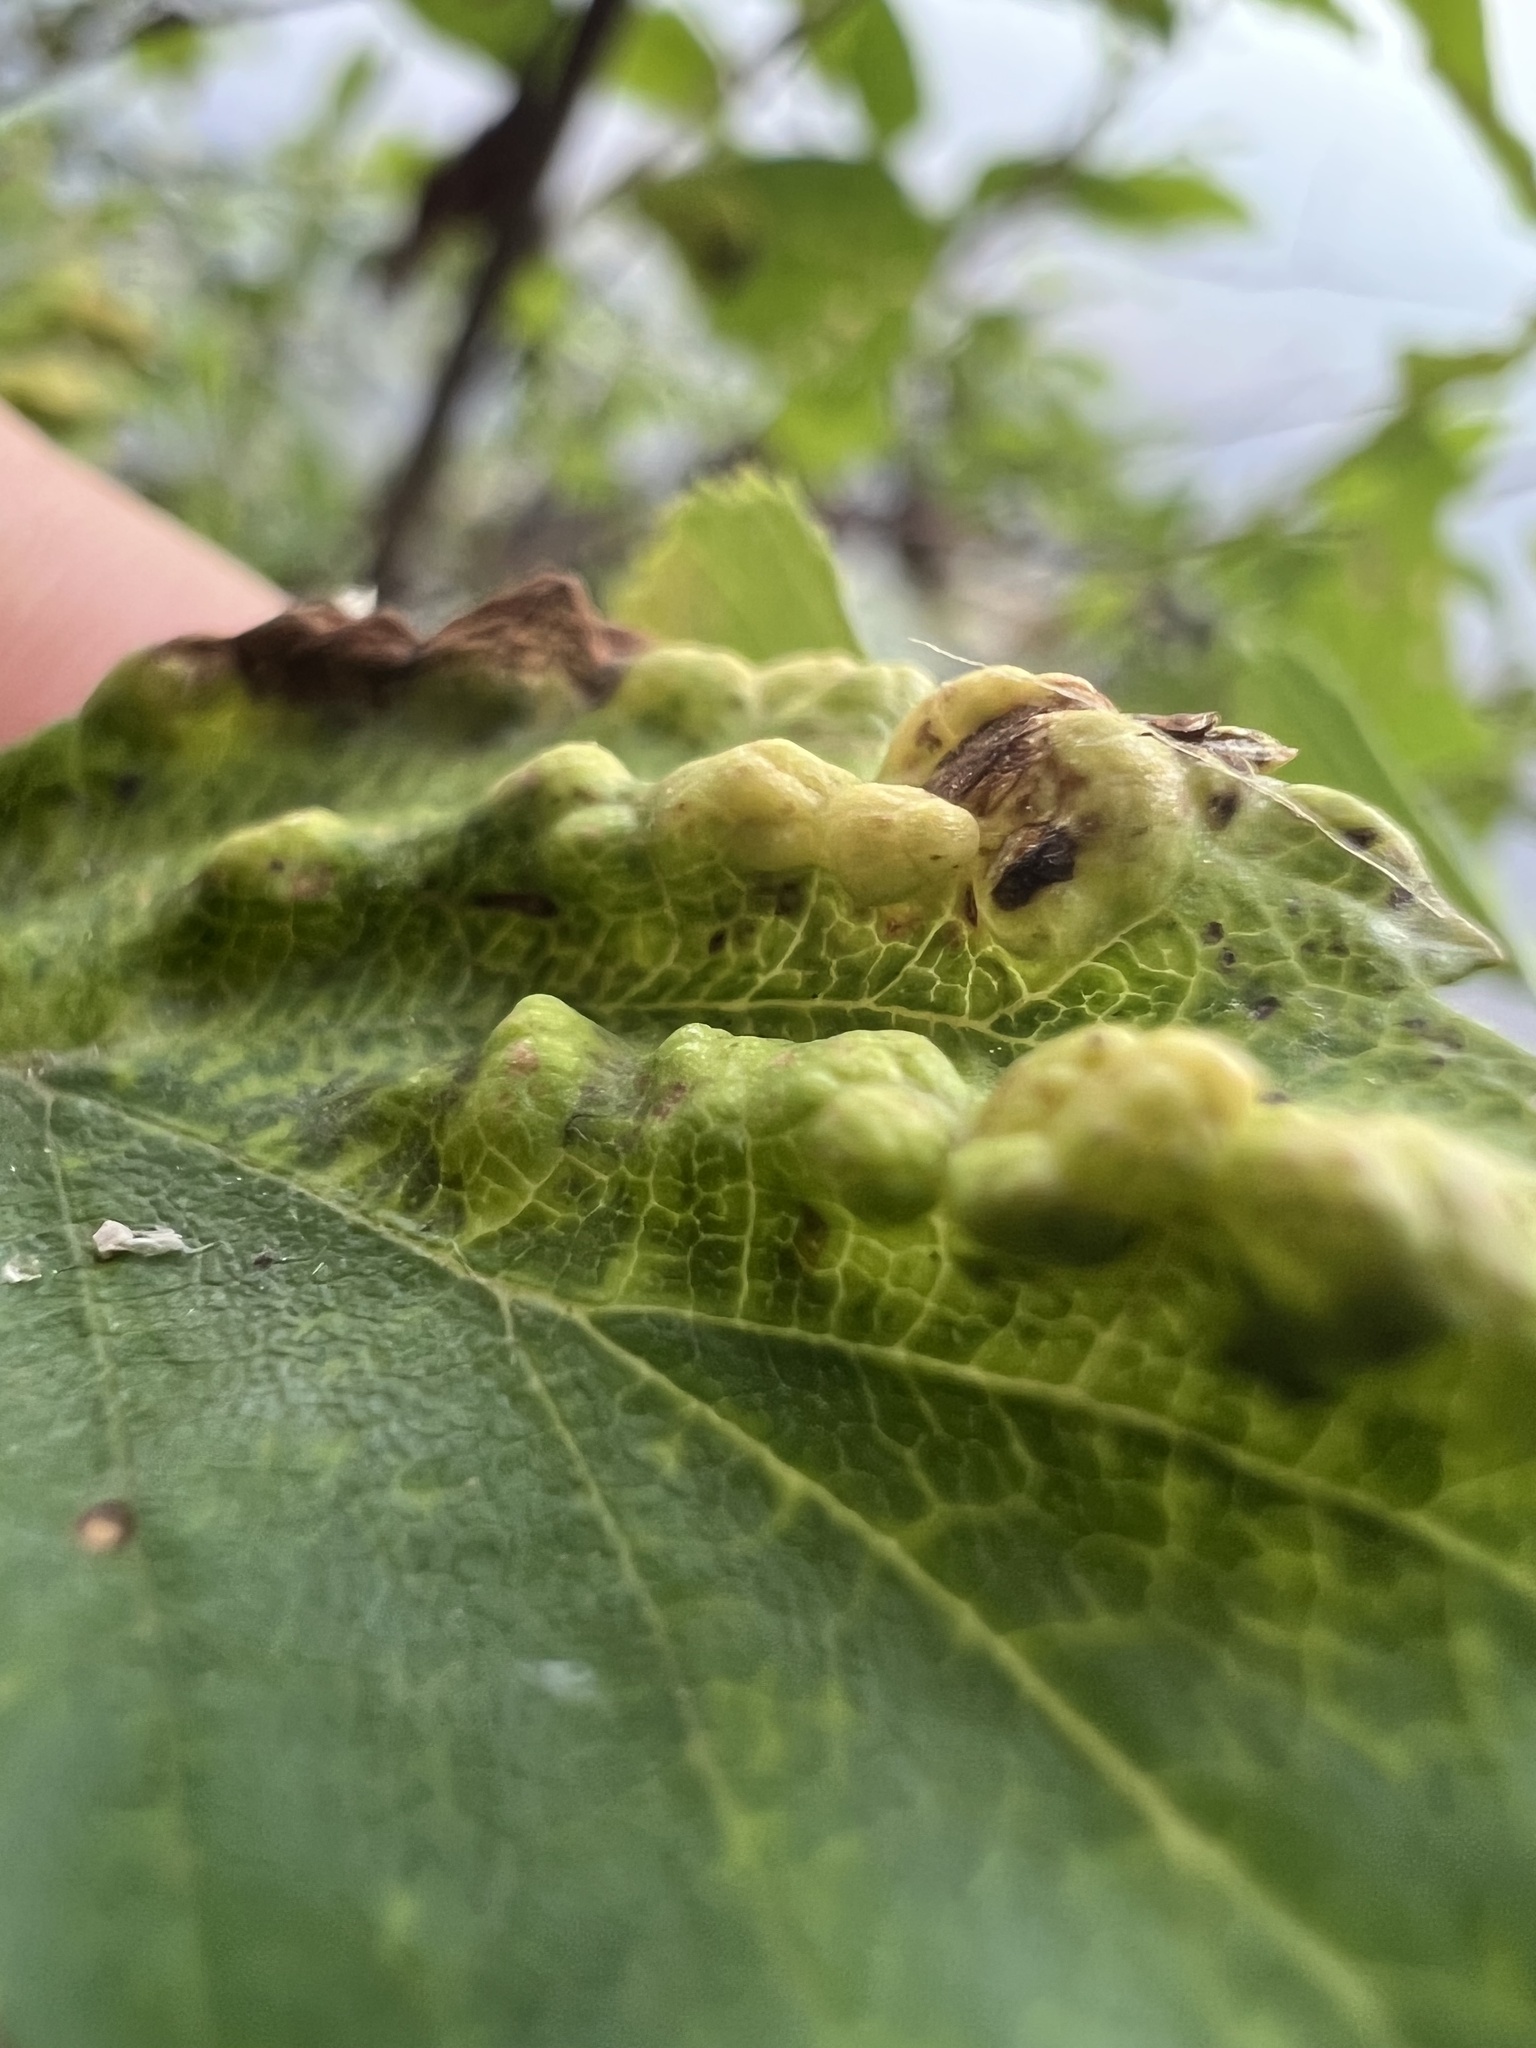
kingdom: Animalia
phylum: Arthropoda
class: Insecta
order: Hemiptera
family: Aphididae
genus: Hamamelistes
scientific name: Hamamelistes spinosus
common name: Witch hazel gall aphid
